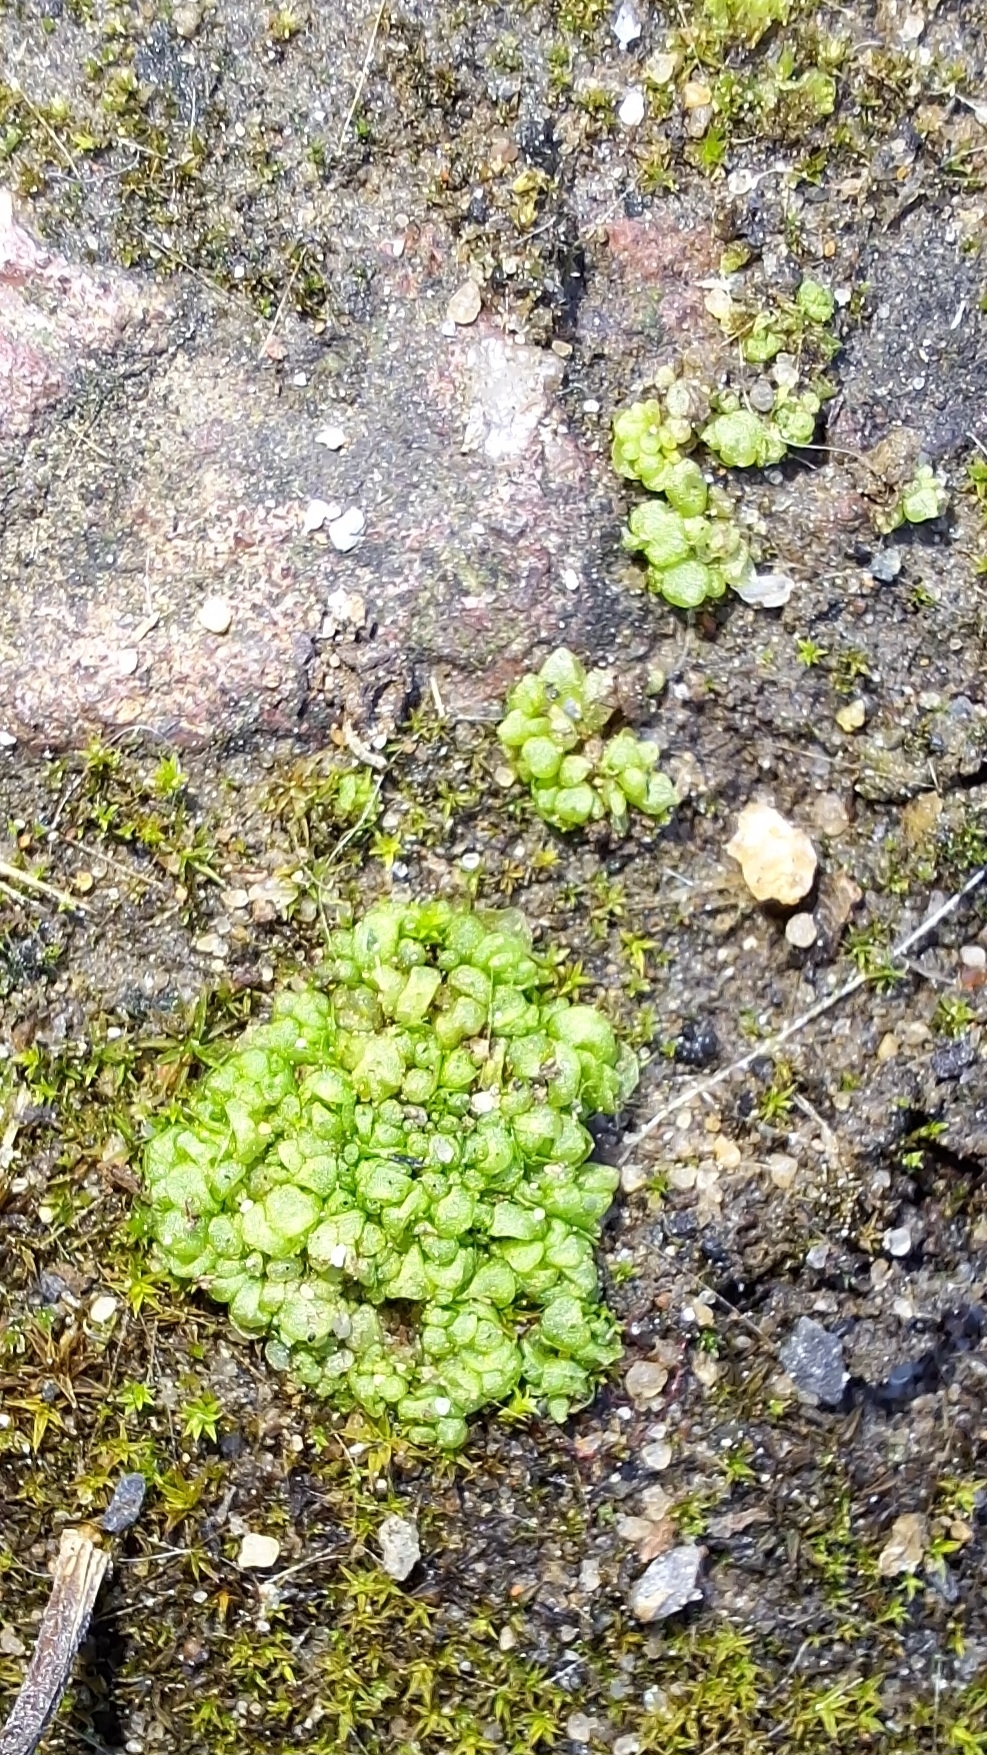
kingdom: Plantae
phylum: Marchantiophyta
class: Marchantiopsida
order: Sphaerocarpales
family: Sphaerocarpaceae
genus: Sphaerocarpos
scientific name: Sphaerocarpos texanus
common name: Texas balloonwort
